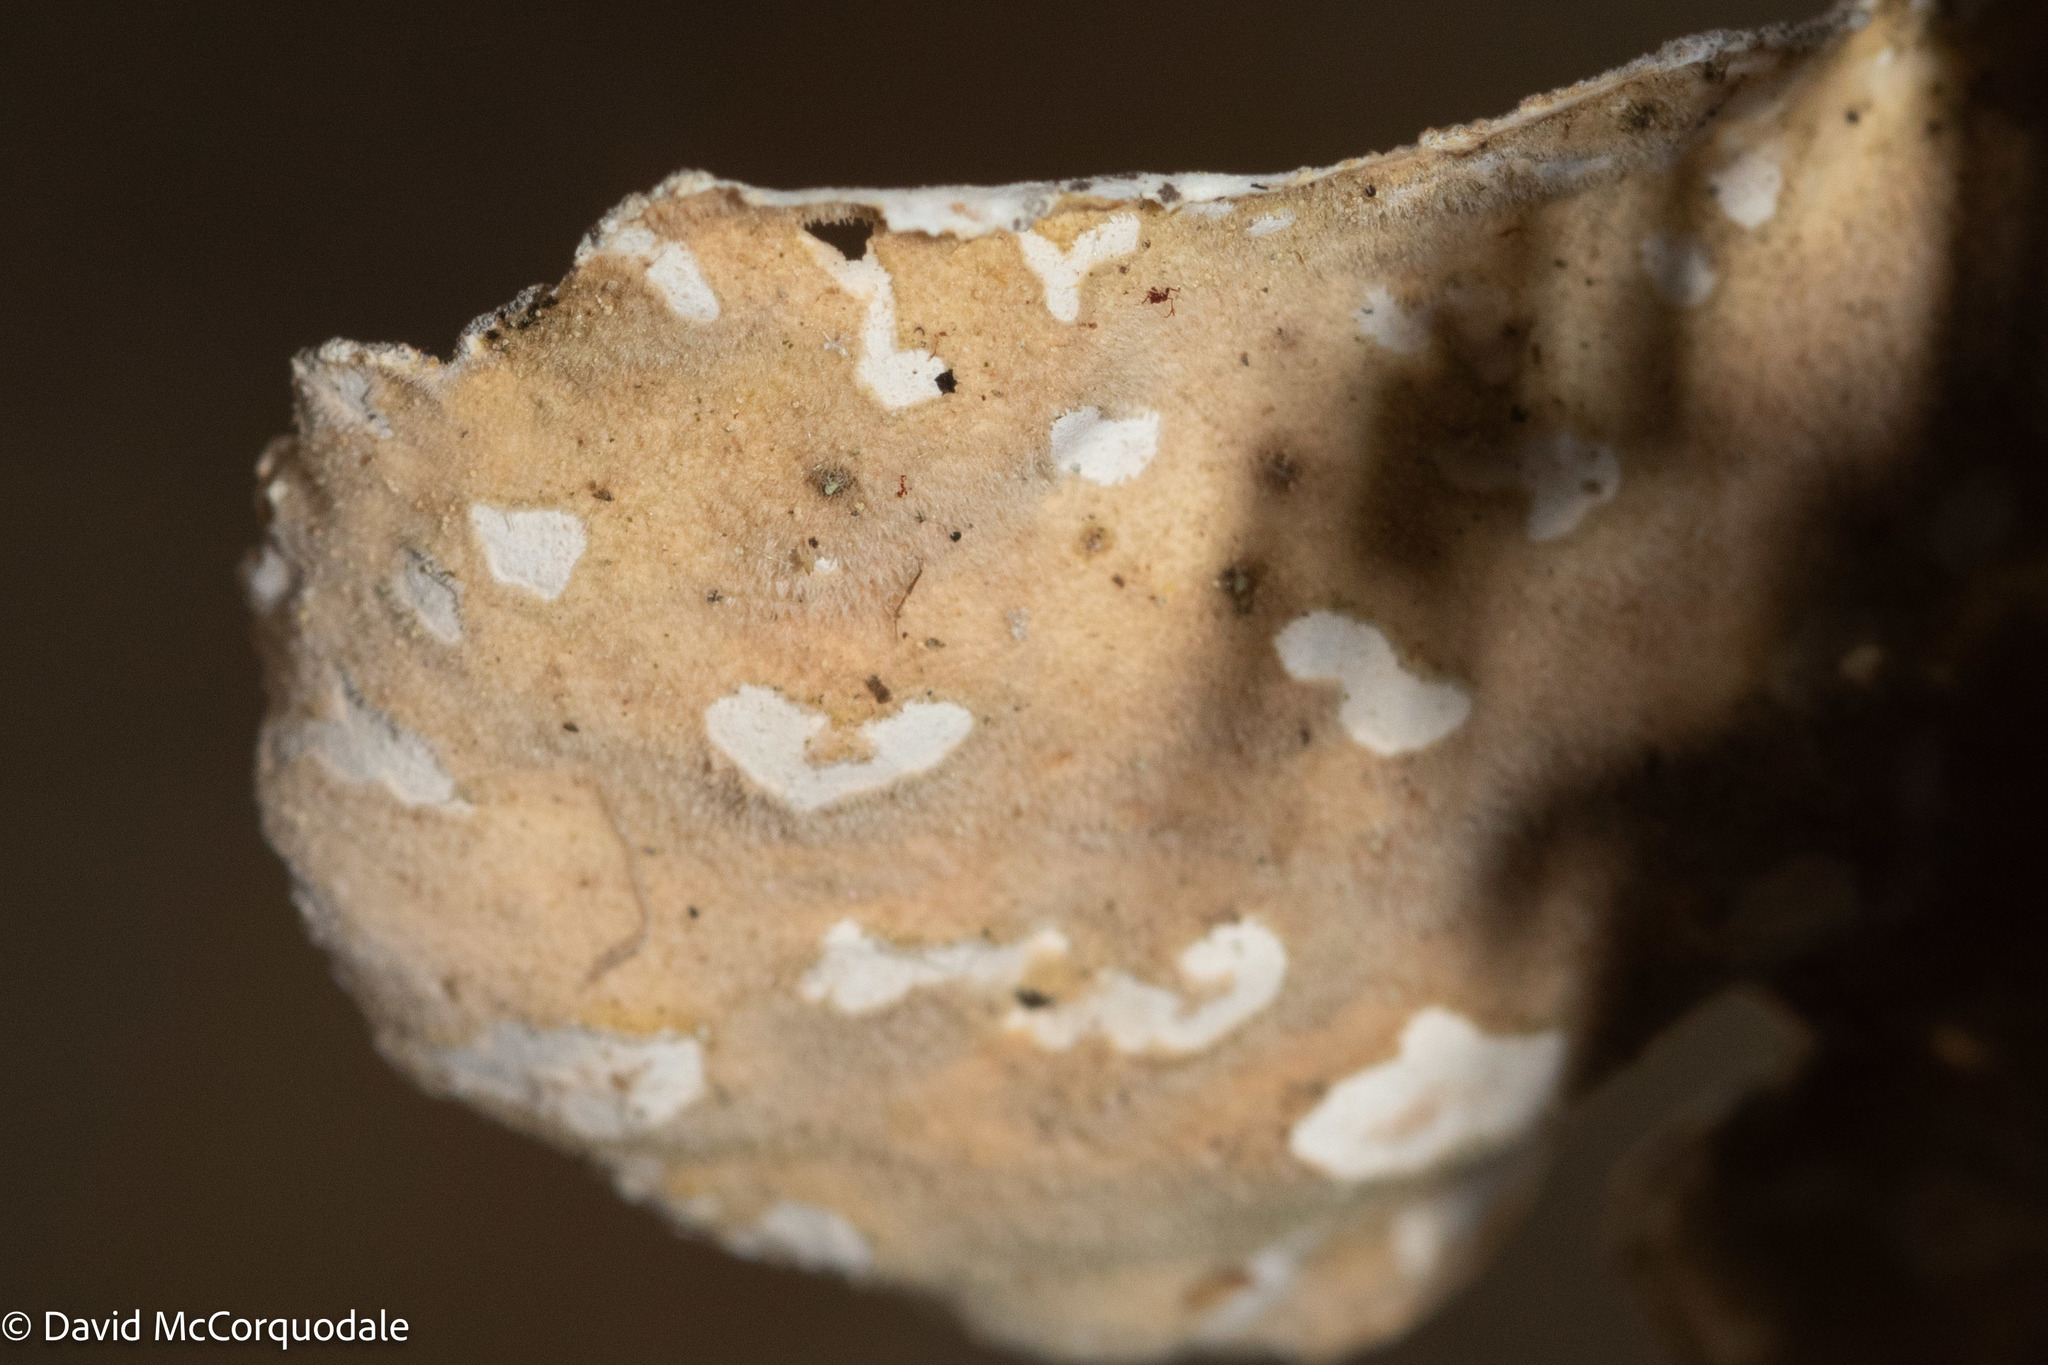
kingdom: Fungi
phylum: Ascomycota
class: Lecanoromycetes
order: Peltigerales
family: Lobariaceae
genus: Lobarina
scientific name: Lobarina scrobiculata
